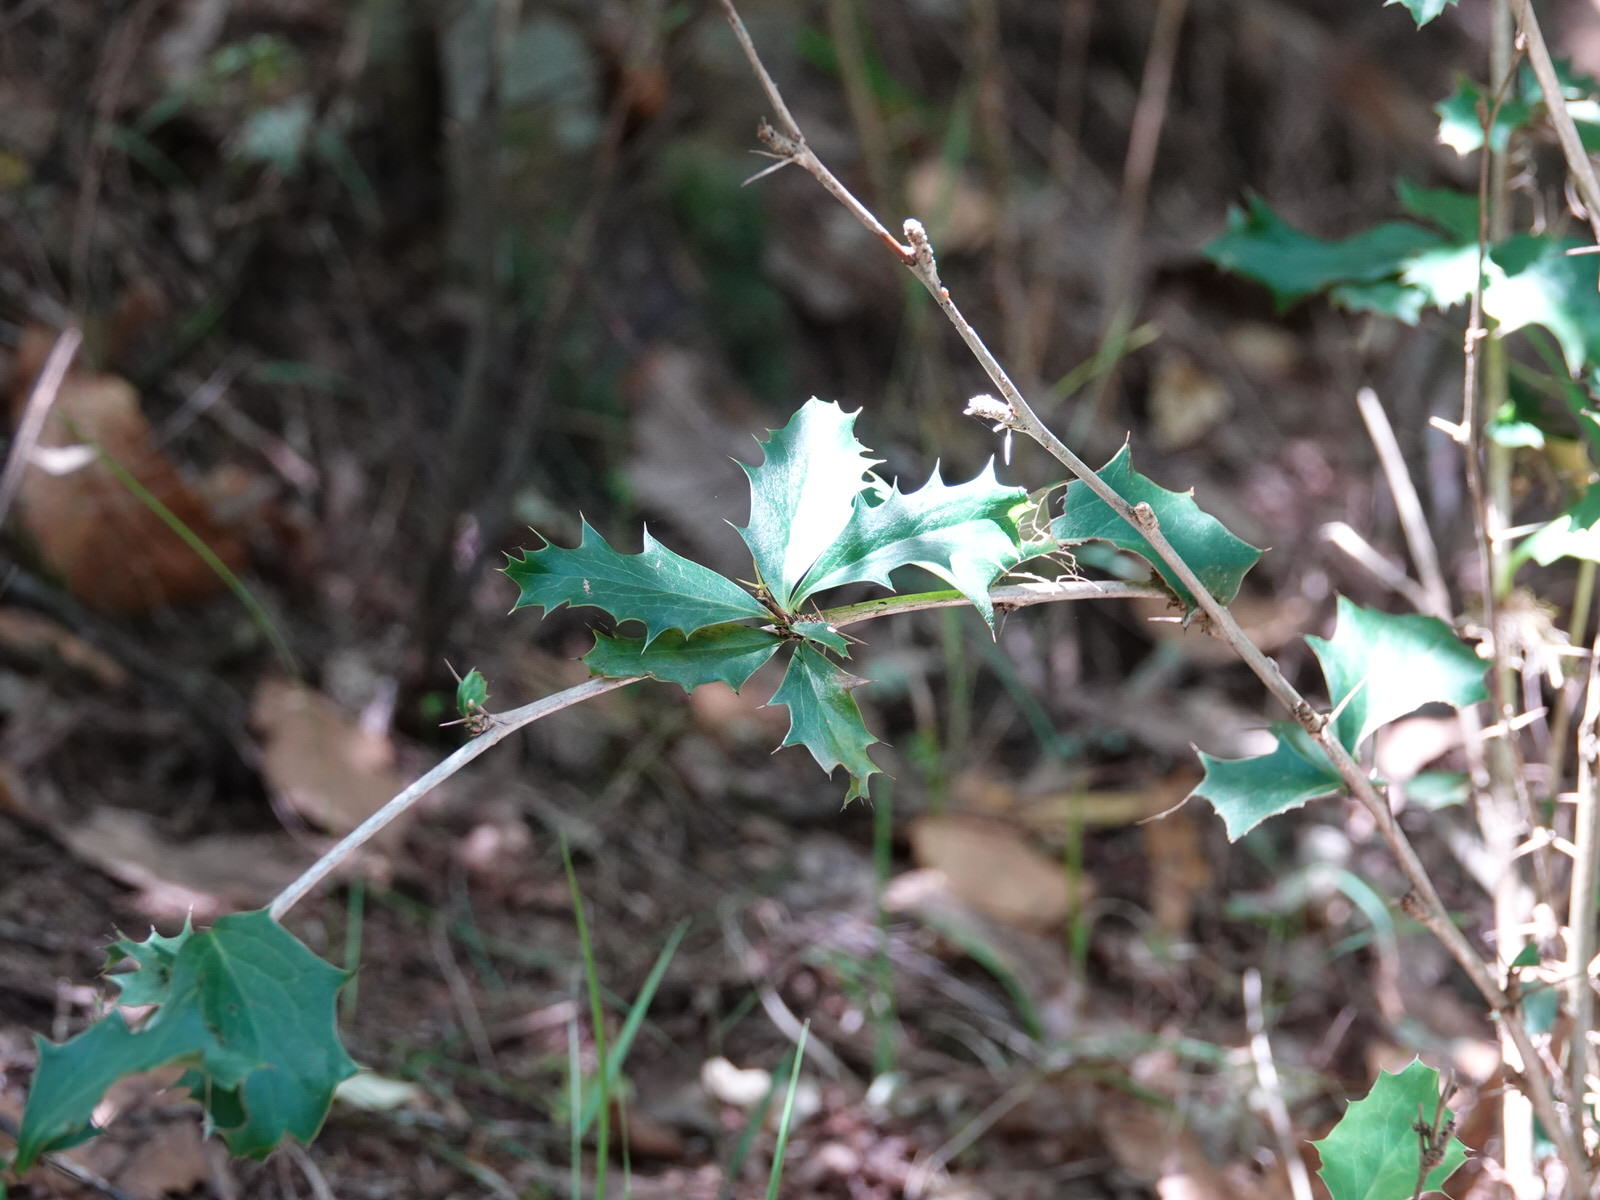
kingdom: Plantae
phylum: Tracheophyta
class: Magnoliopsida
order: Ranunculales
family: Berberidaceae
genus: Berberis
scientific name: Berberis glaucocarpa
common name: Great barberry
